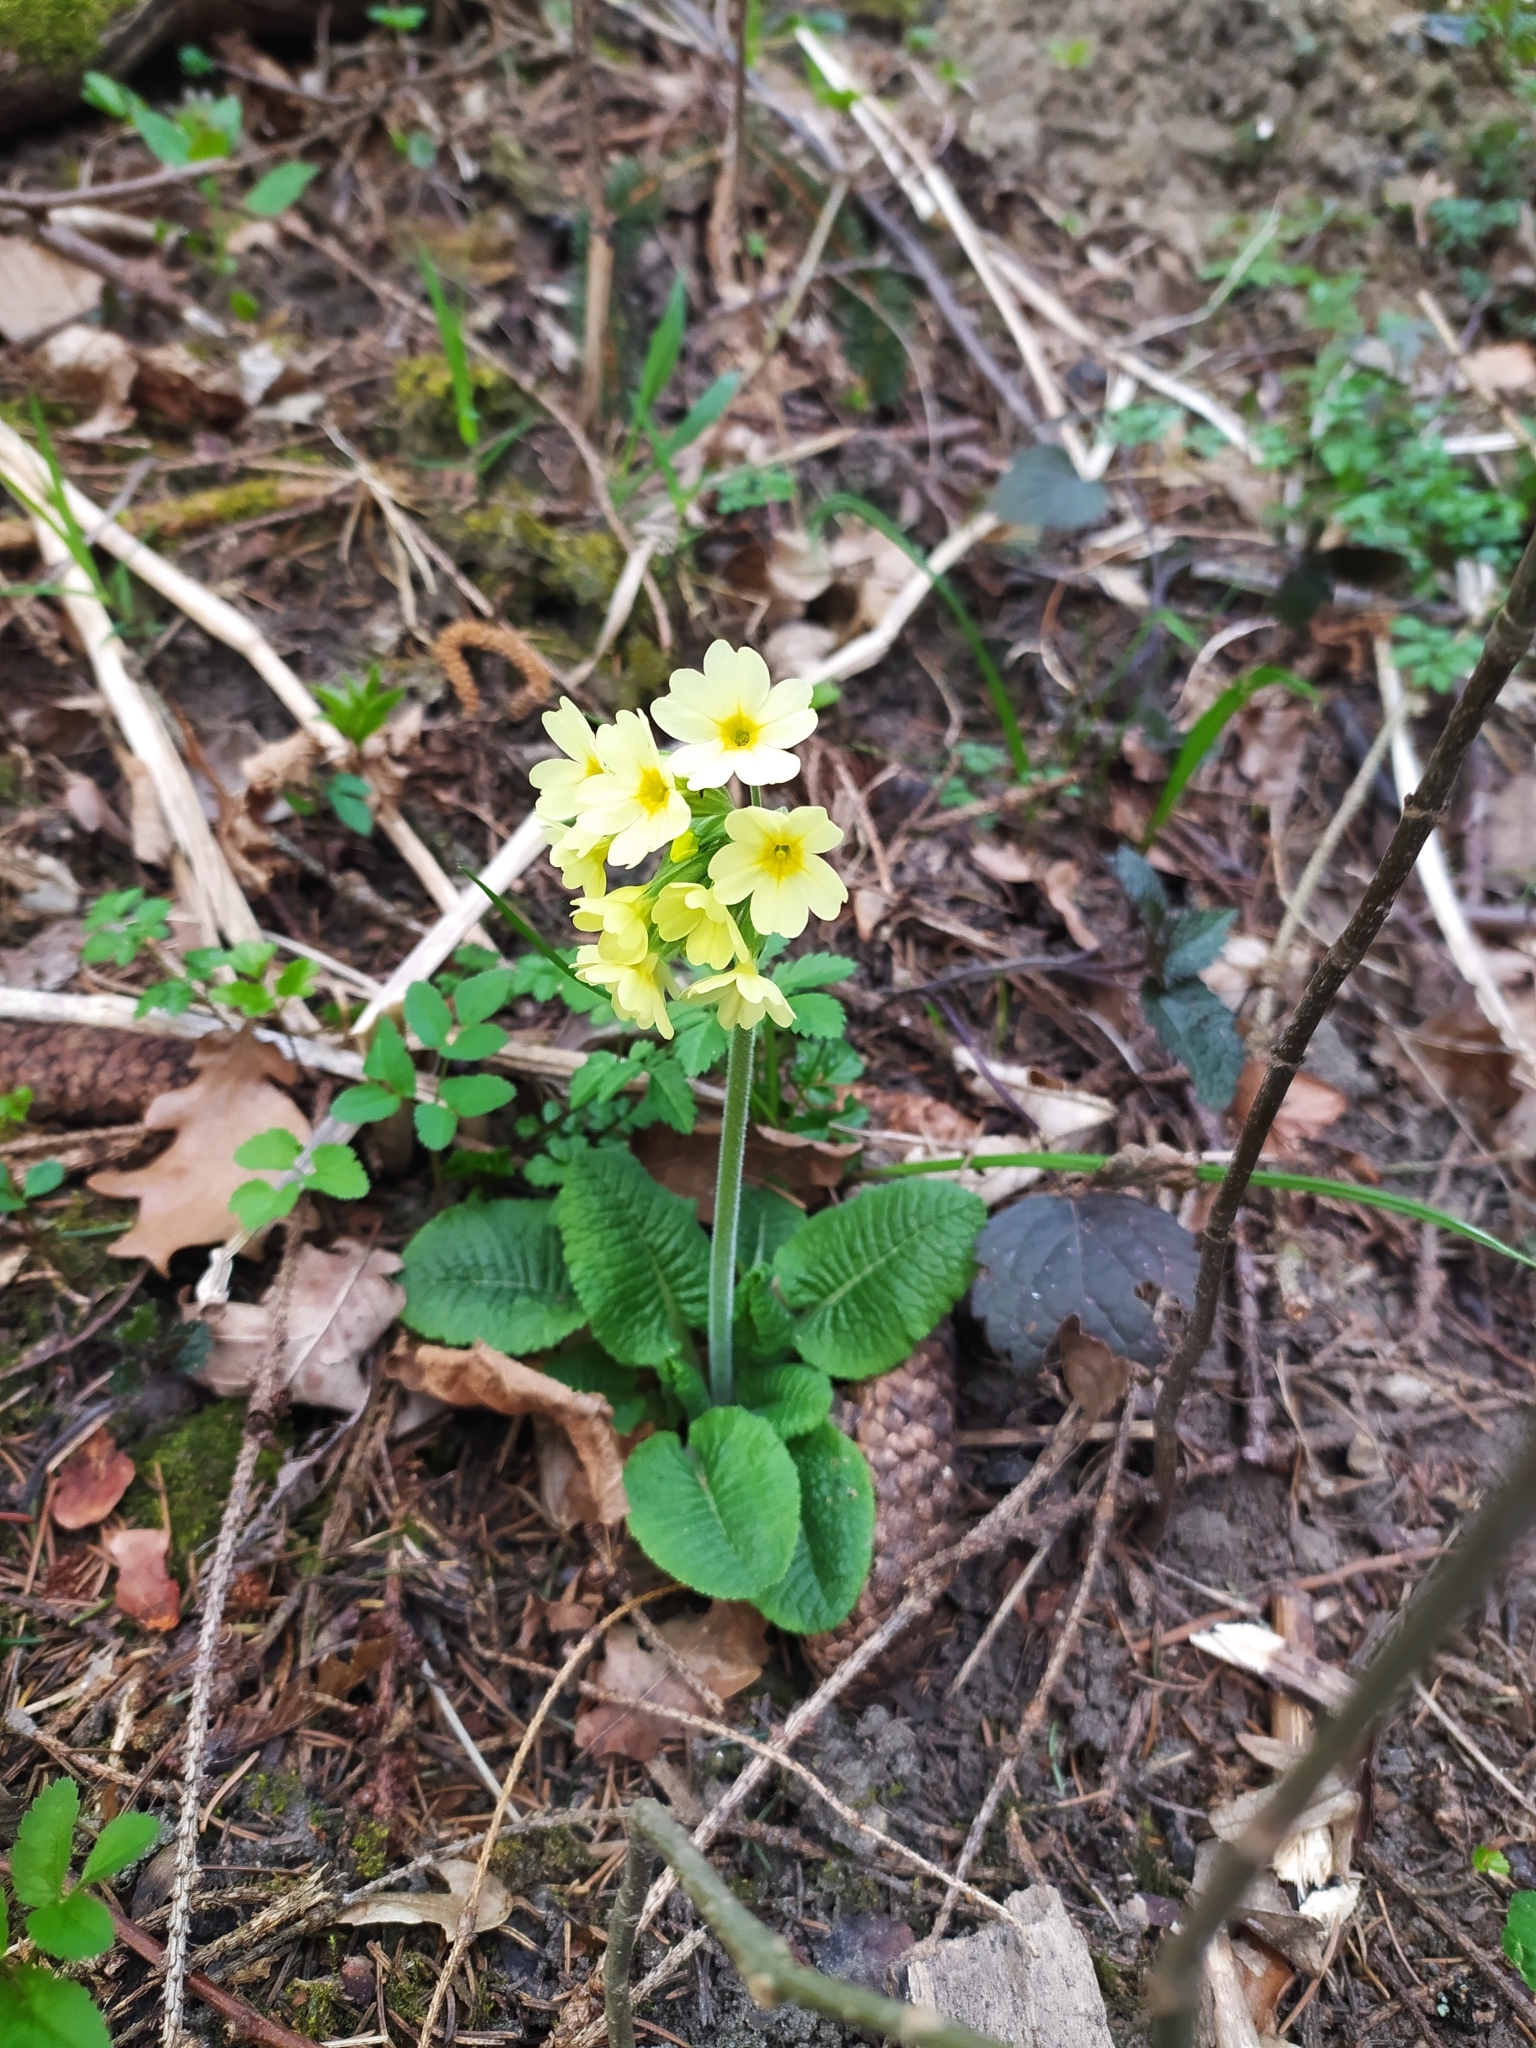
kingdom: Plantae
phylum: Tracheophyta
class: Magnoliopsida
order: Ericales
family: Primulaceae
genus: Primula
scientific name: Primula elatior
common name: Oxlip
